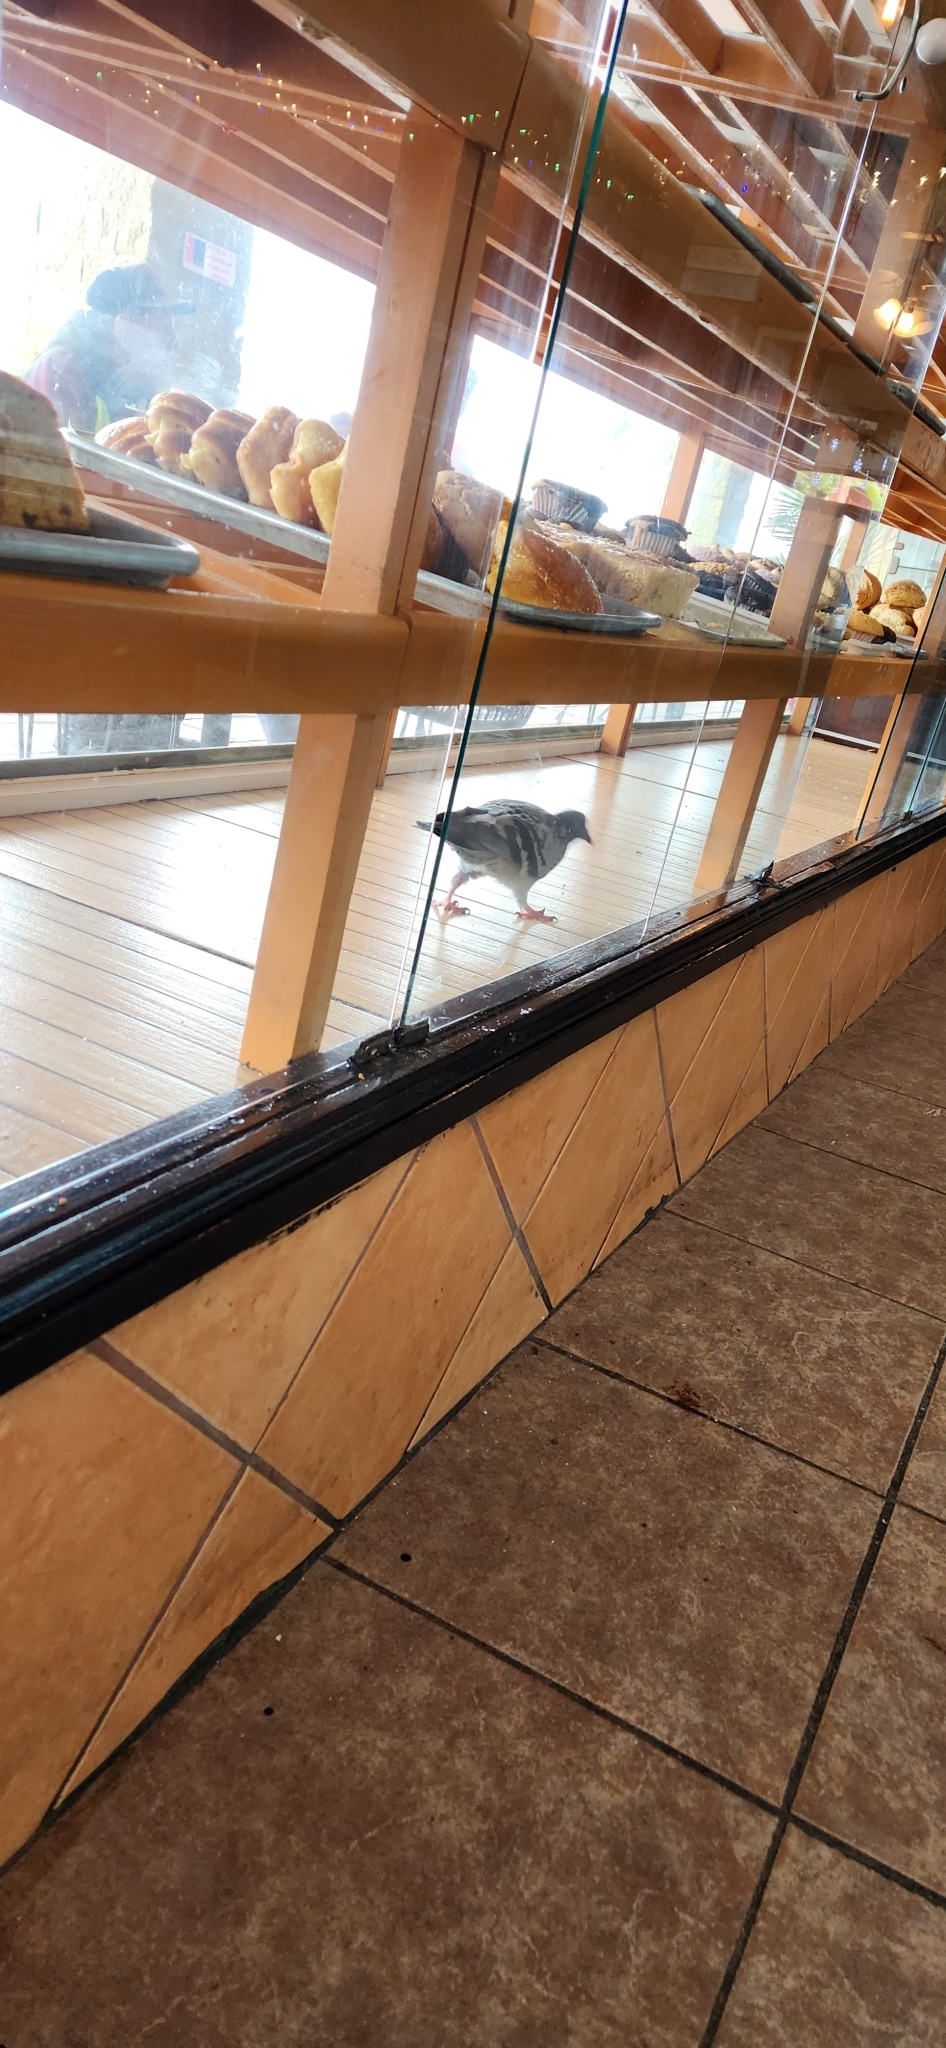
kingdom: Animalia
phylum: Chordata
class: Aves
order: Columbiformes
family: Columbidae
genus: Columba
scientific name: Columba livia
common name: Rock pigeon
